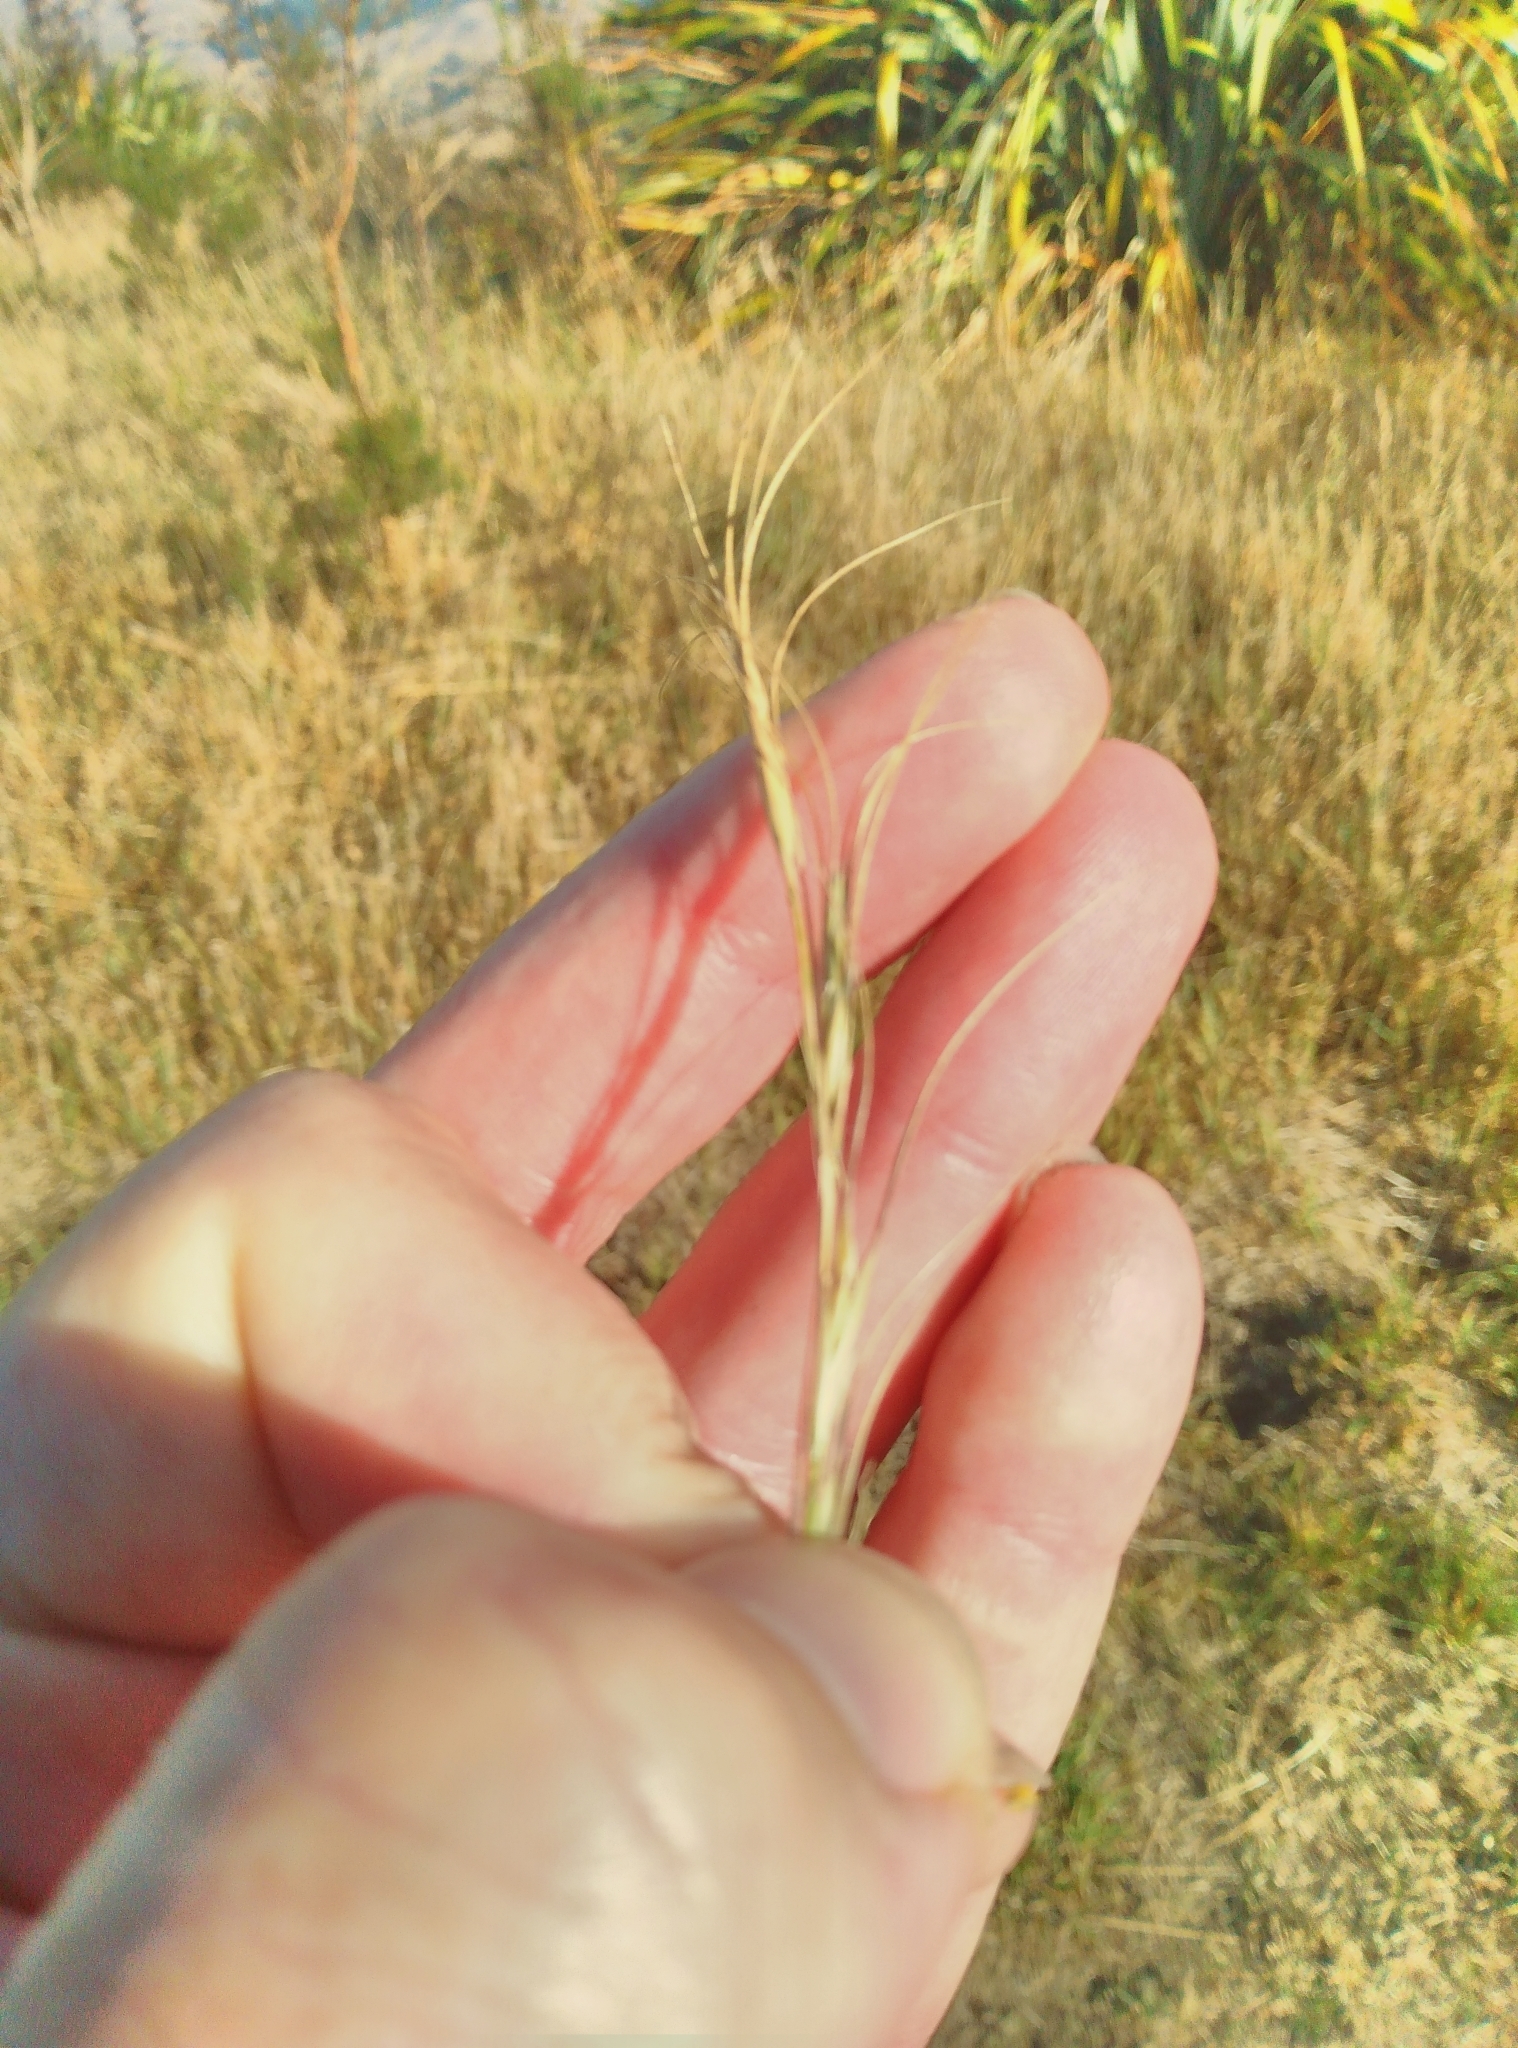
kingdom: Plantae
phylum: Tracheophyta
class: Liliopsida
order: Poales
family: Poaceae
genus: Anthosachne
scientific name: Anthosachne scabra
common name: Common wheatgrass
